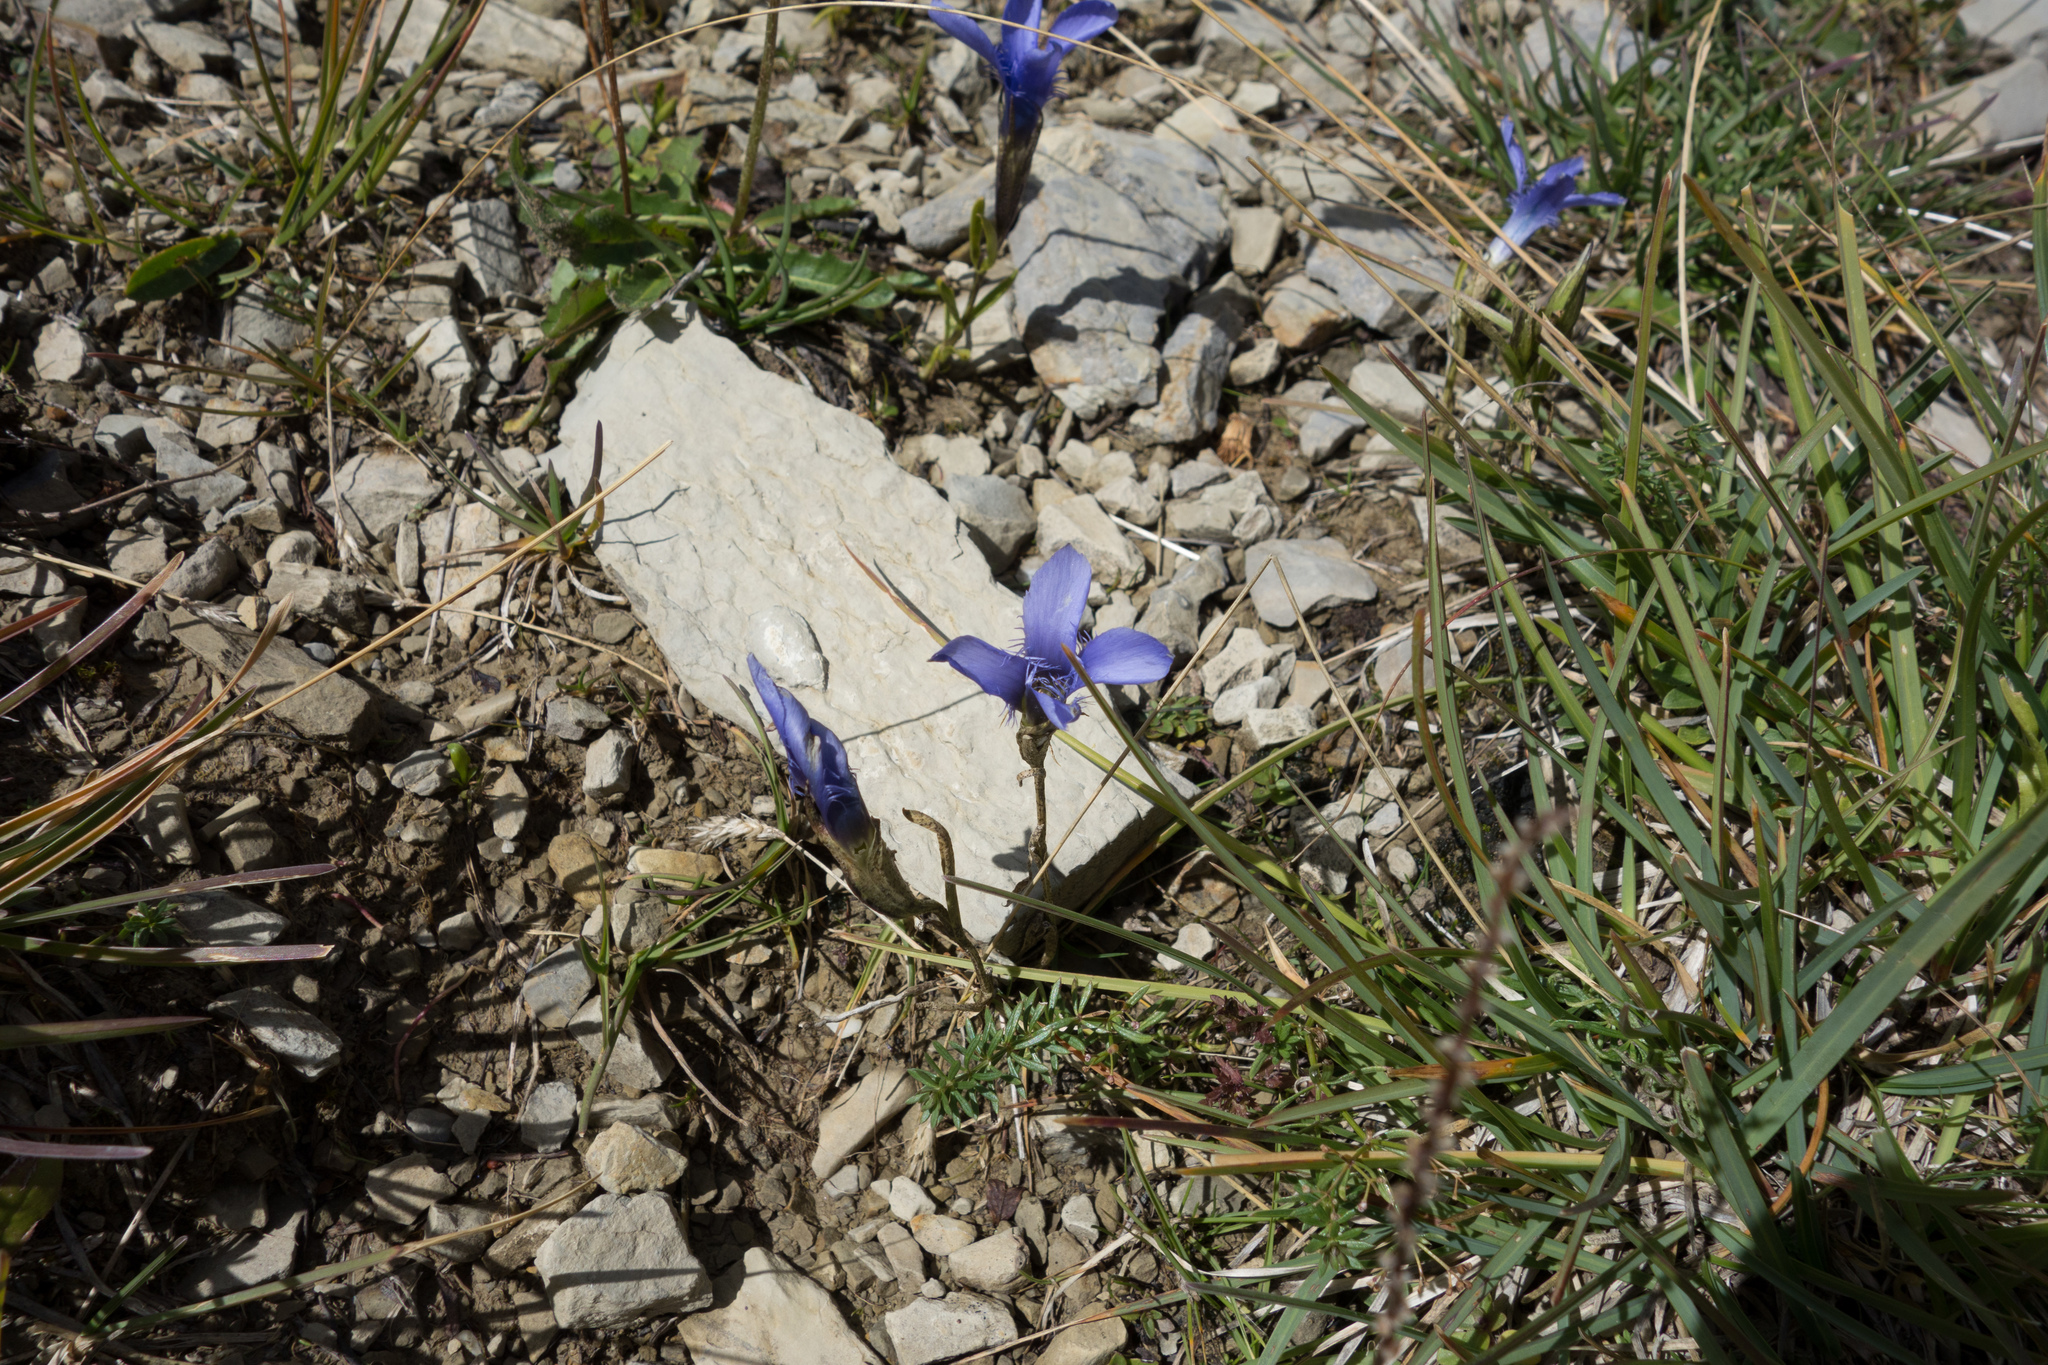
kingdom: Plantae
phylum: Tracheophyta
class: Magnoliopsida
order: Gentianales
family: Gentianaceae
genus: Gentianopsis
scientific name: Gentianopsis ciliata
